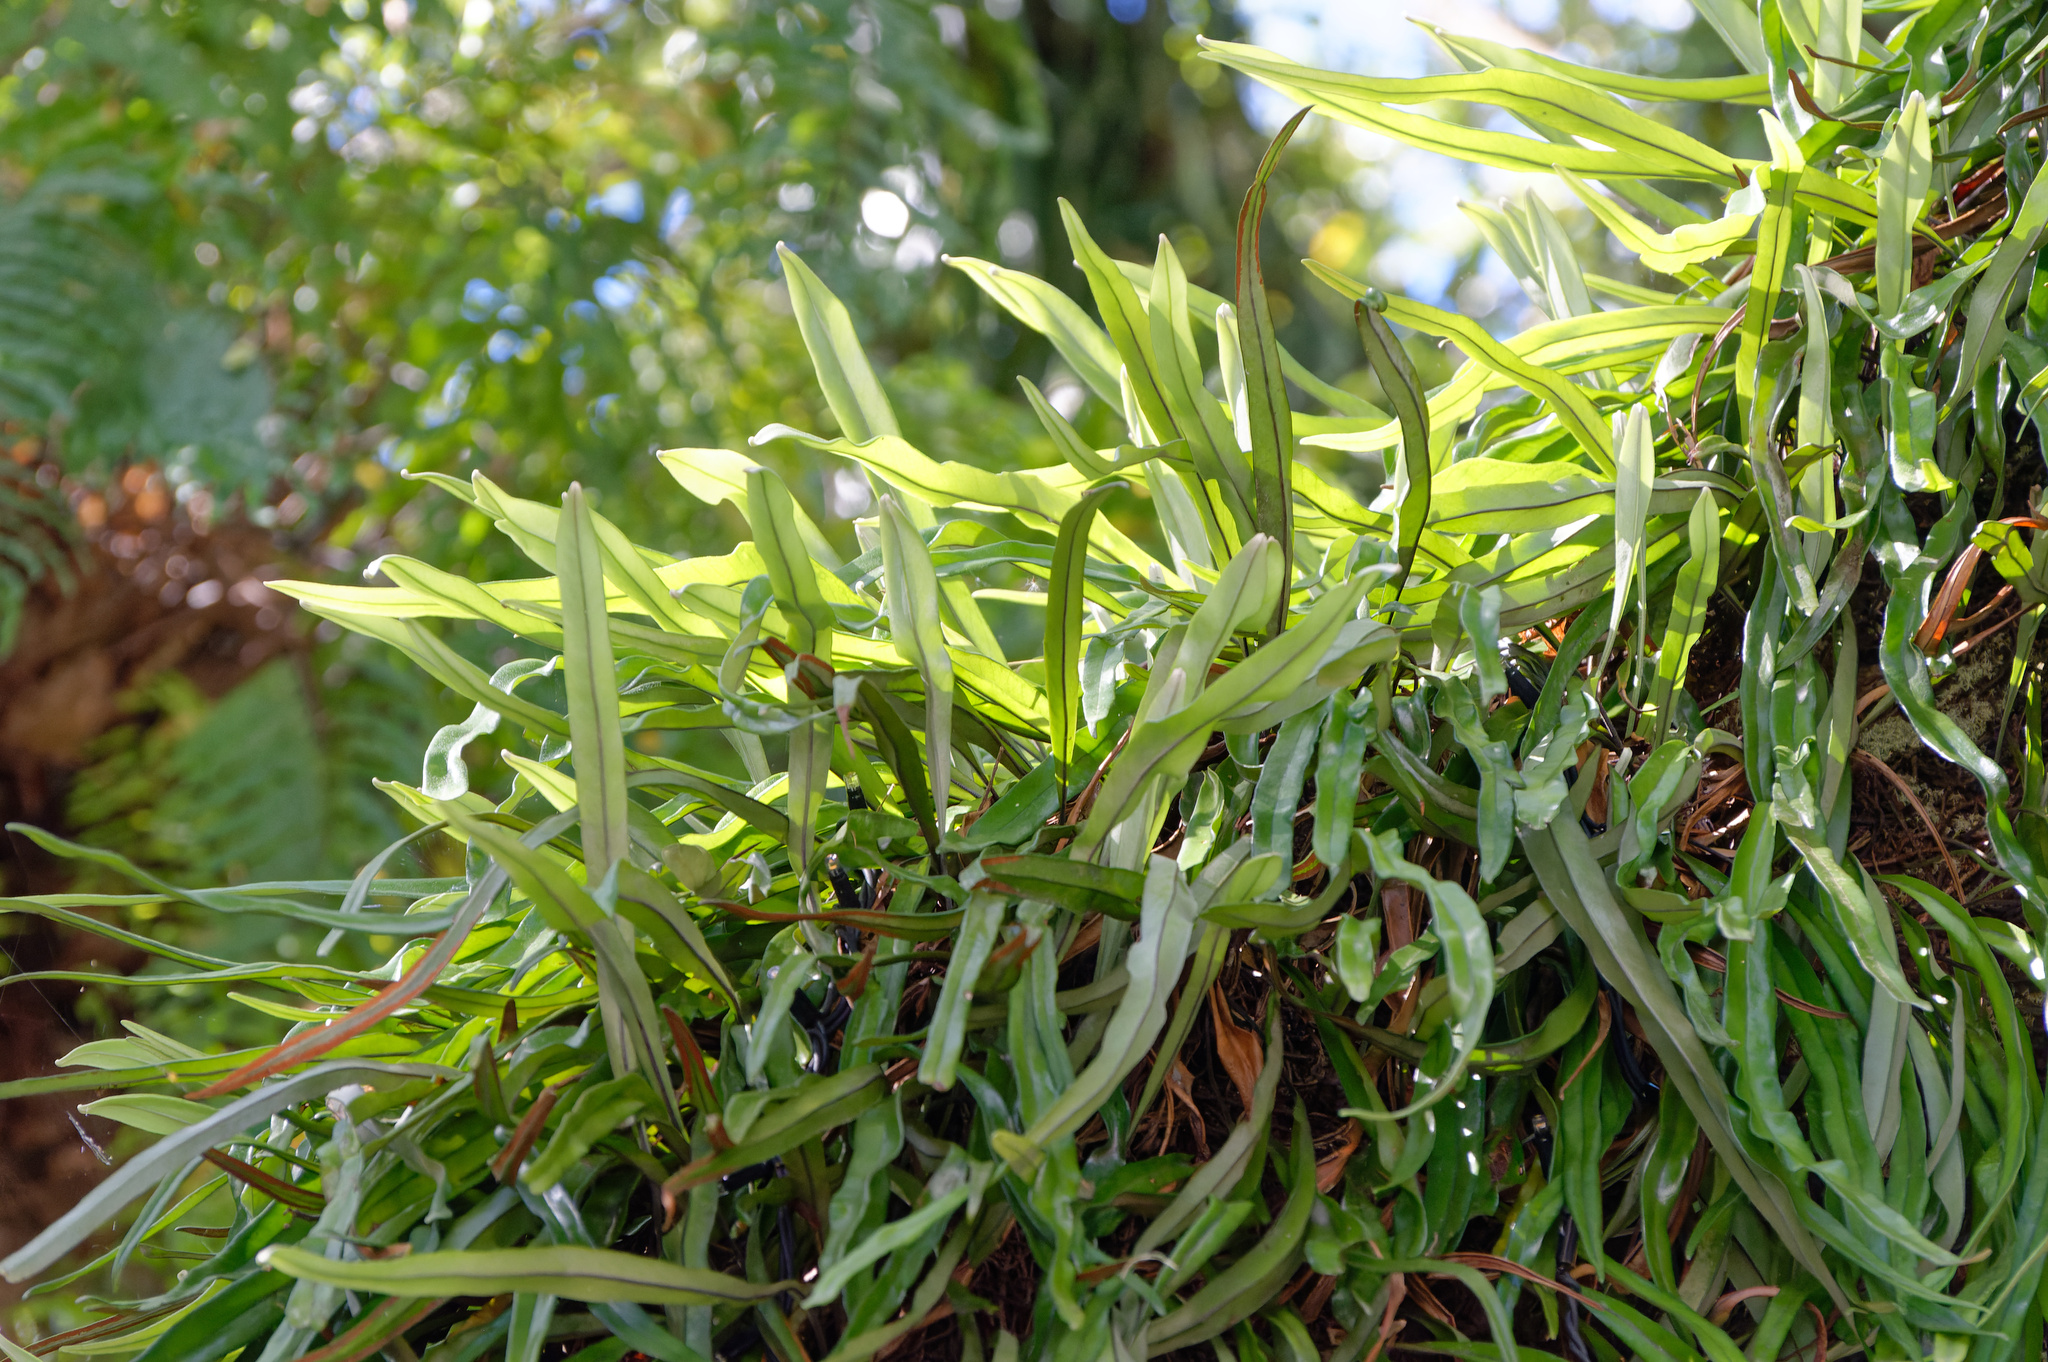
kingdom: Plantae
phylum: Tracheophyta
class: Polypodiopsida
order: Polypodiales
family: Polypodiaceae
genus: Pyrrosia
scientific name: Pyrrosia longifolia
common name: Long-leaved felt fern
